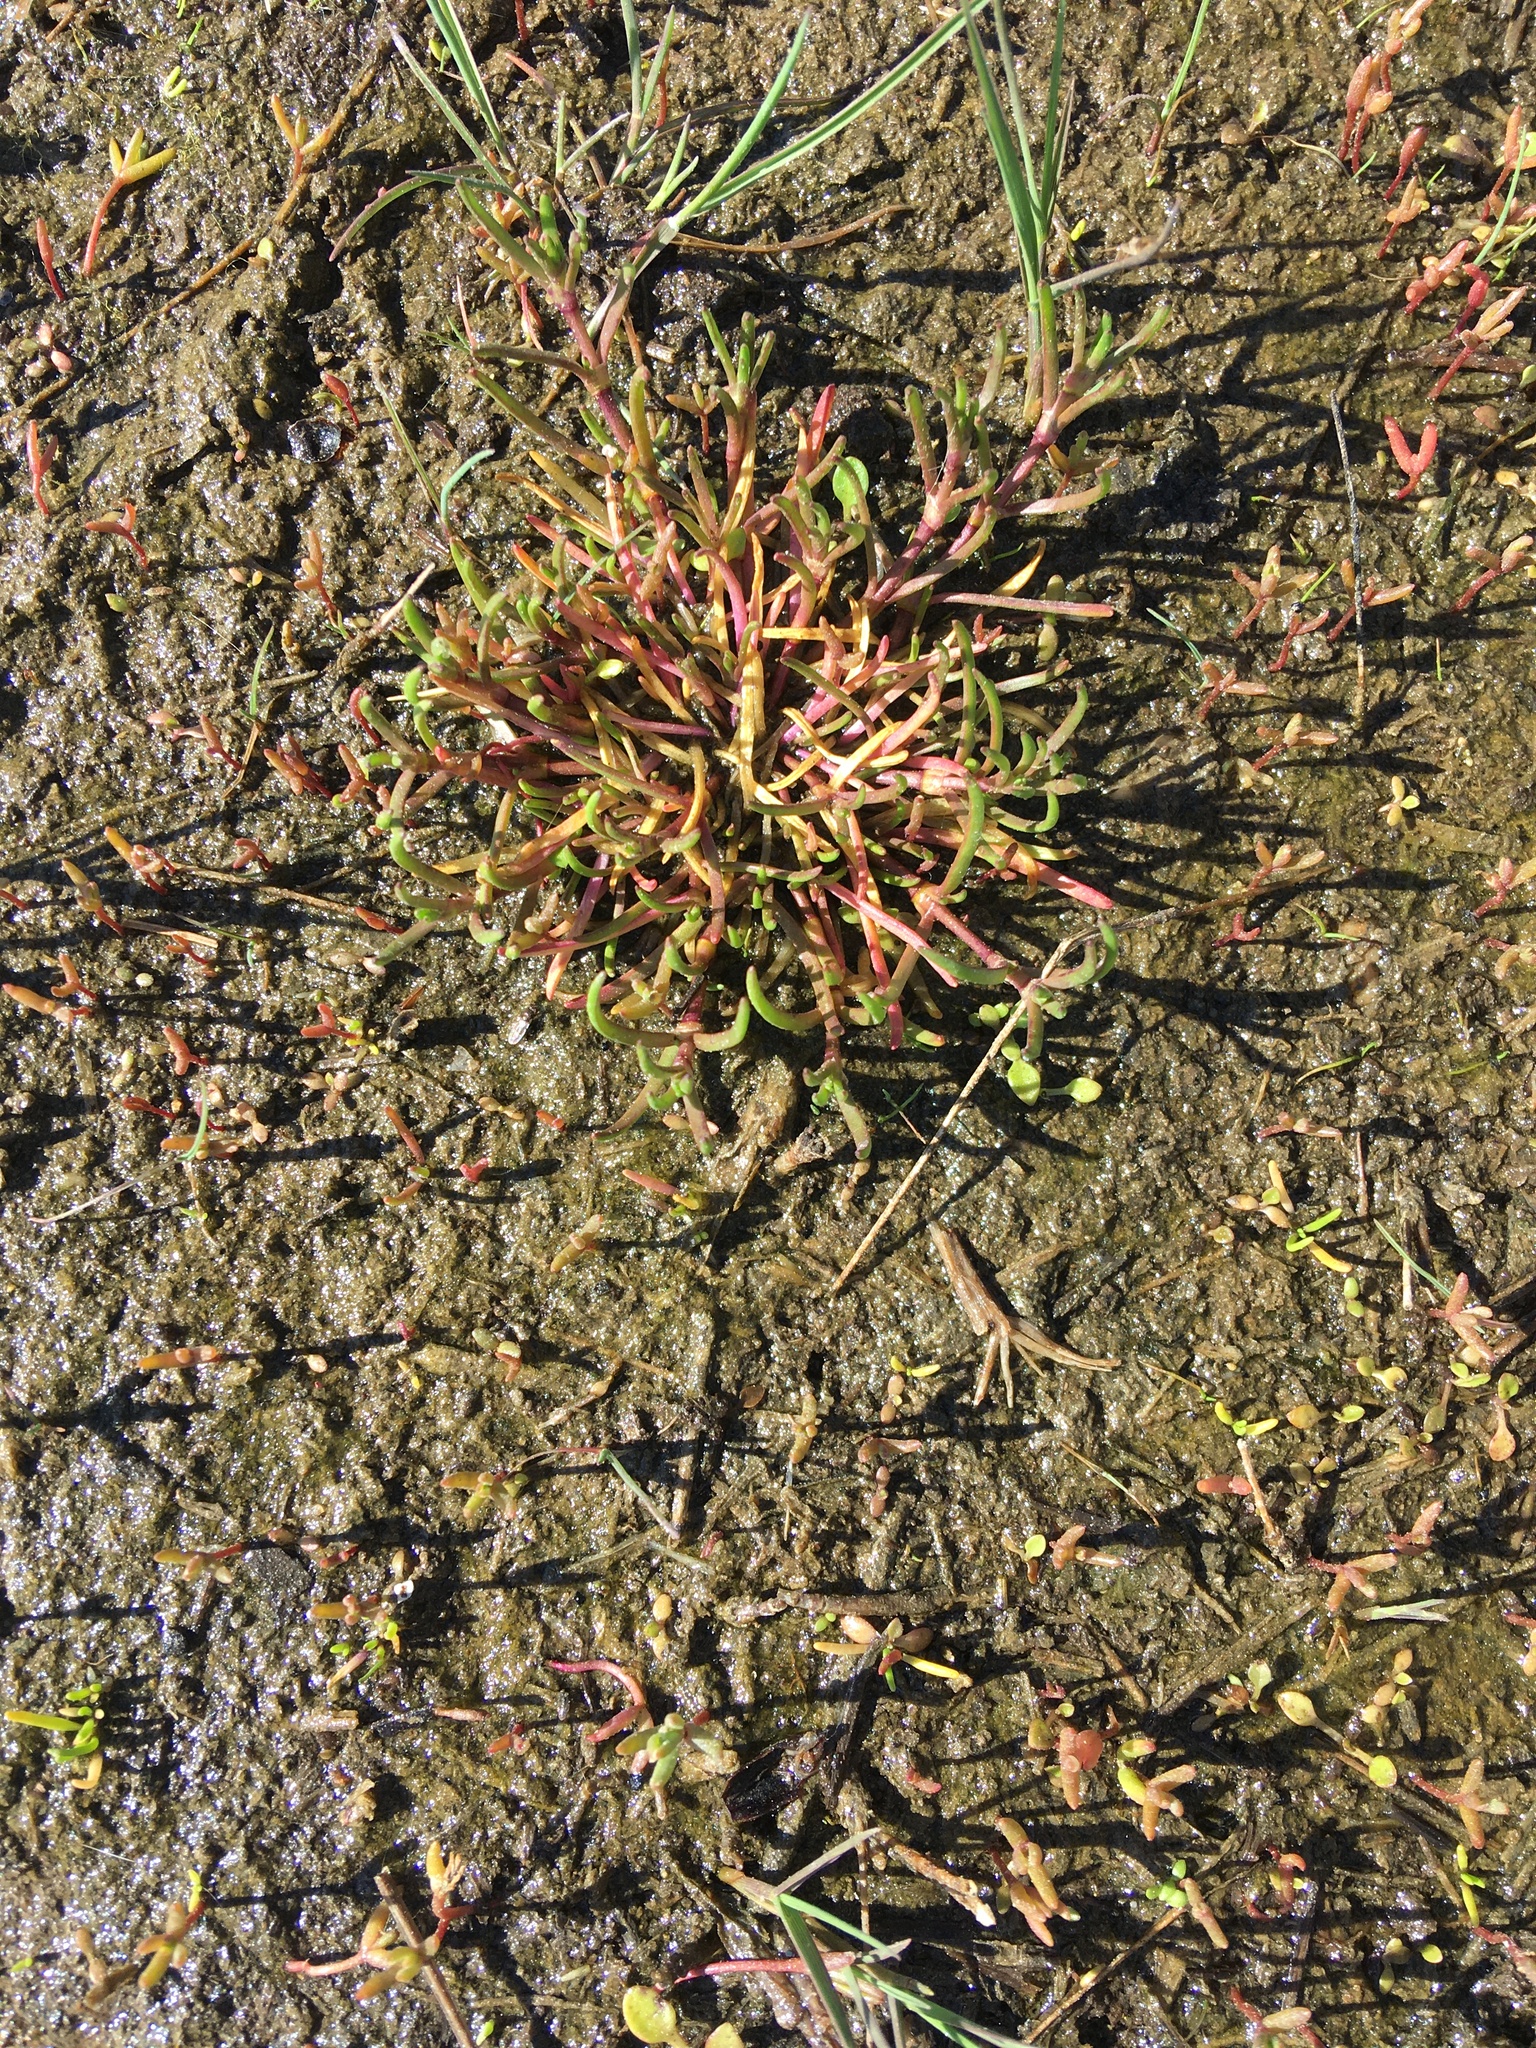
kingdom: Plantae
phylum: Tracheophyta
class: Magnoliopsida
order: Caryophyllales
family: Caryophyllaceae
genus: Spergularia
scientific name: Spergularia marina
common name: Lesser sea-spurrey
